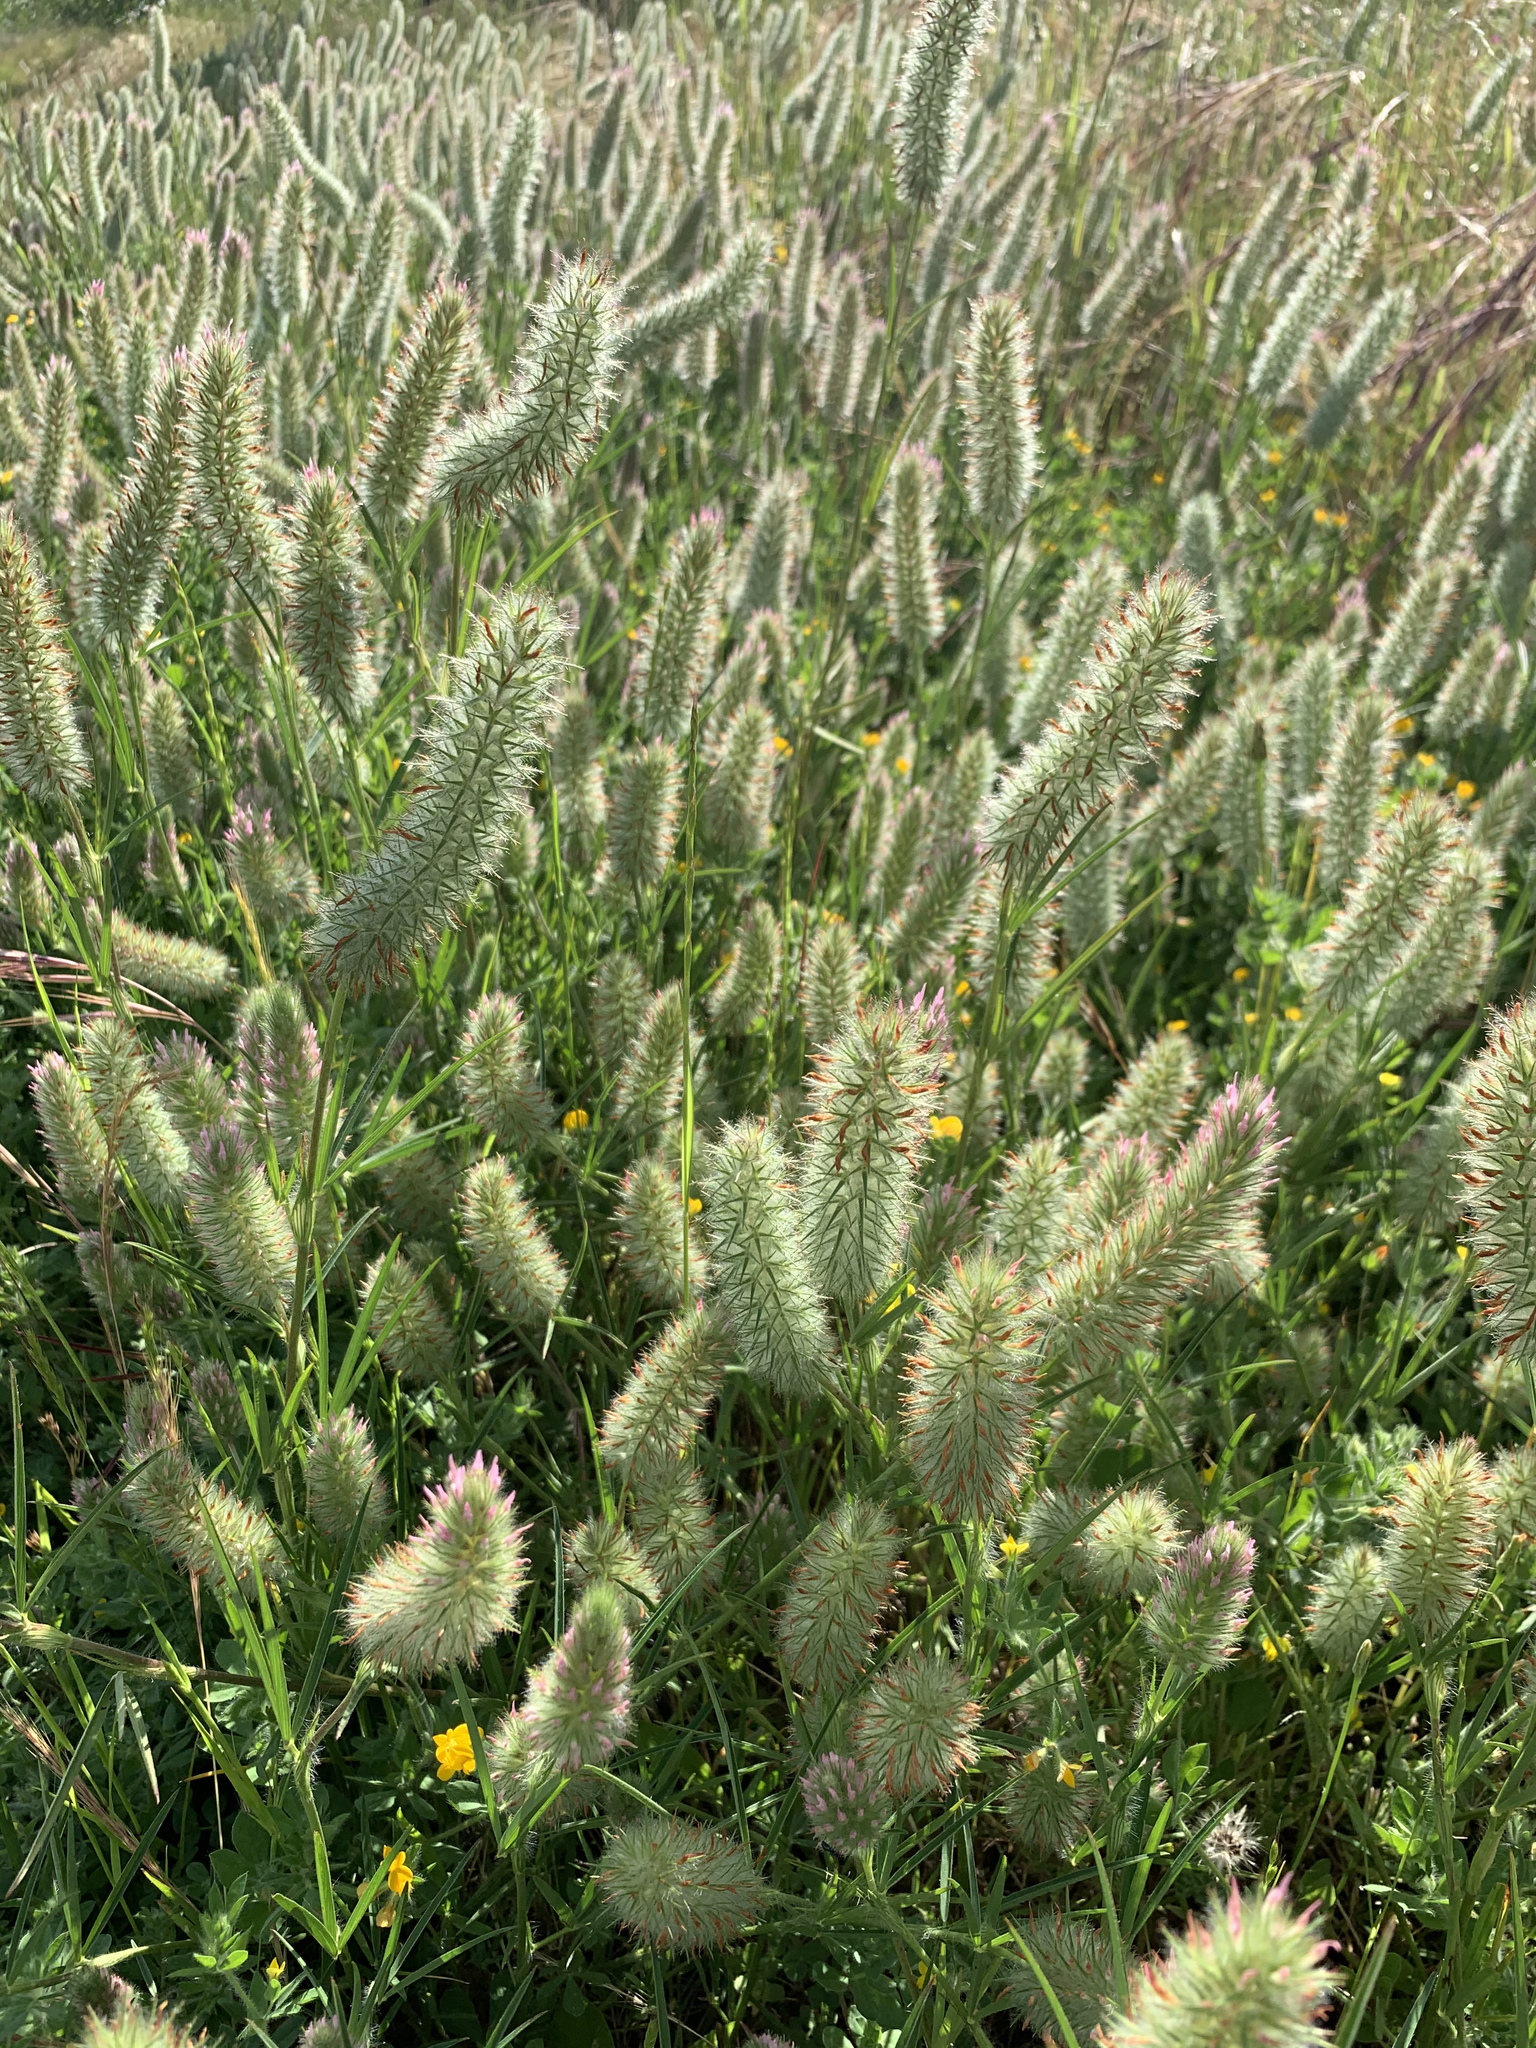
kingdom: Plantae
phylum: Tracheophyta
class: Magnoliopsida
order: Fabales
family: Fabaceae
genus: Trifolium
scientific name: Trifolium angustifolium
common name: Narrow clover
